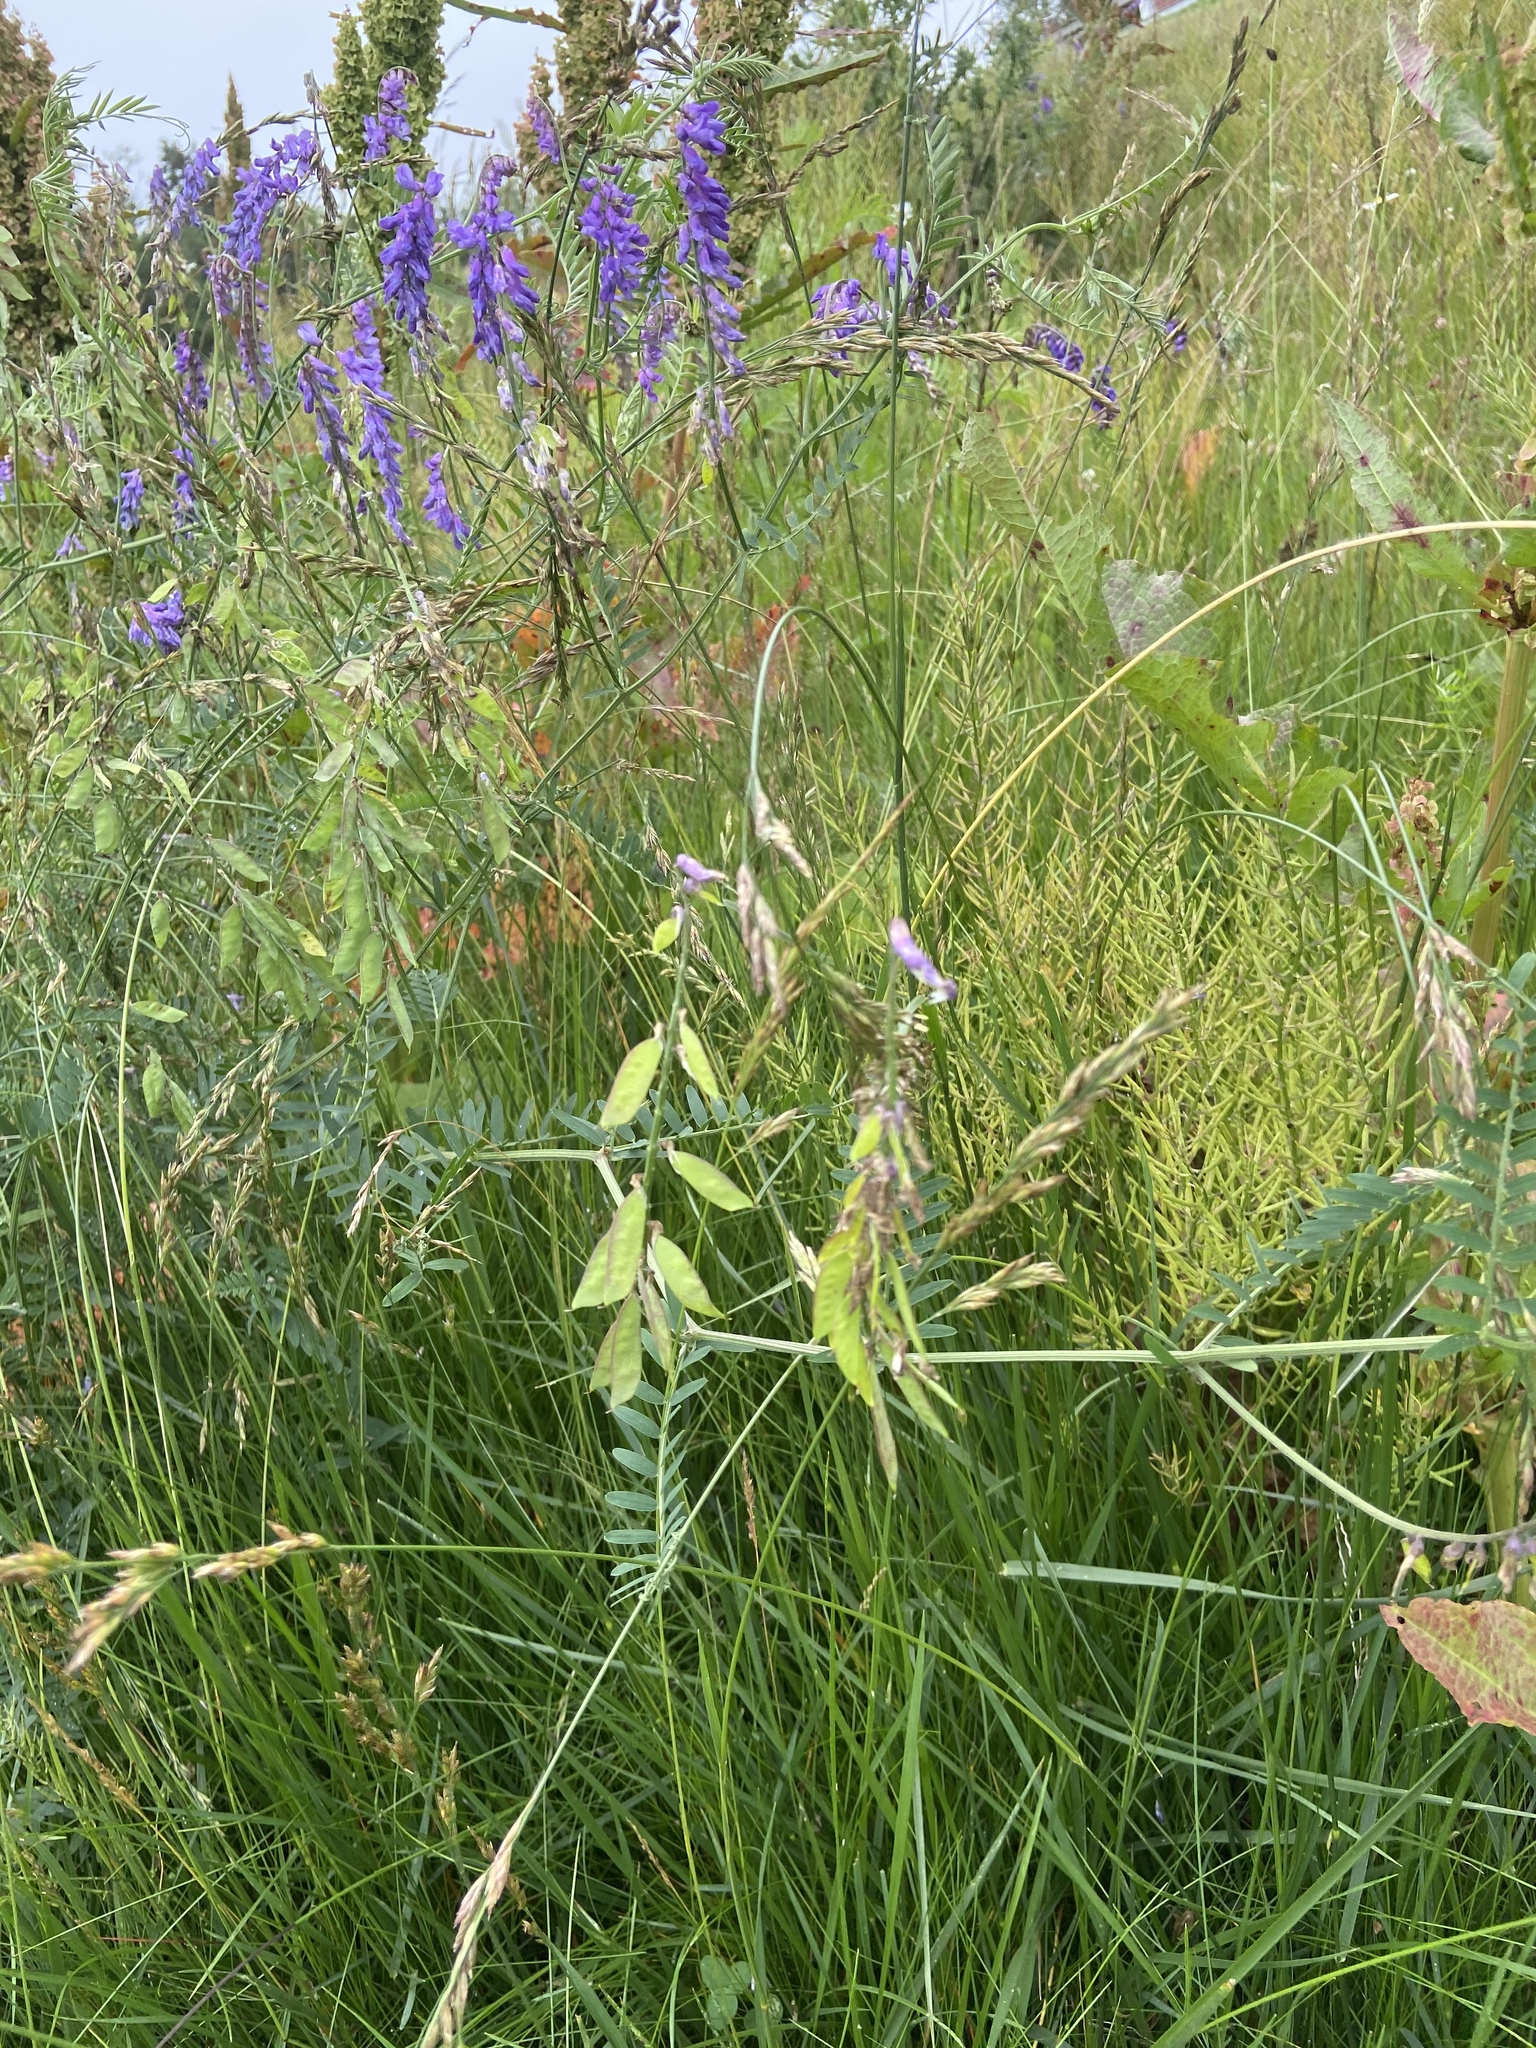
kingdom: Plantae
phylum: Tracheophyta
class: Magnoliopsida
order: Fabales
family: Fabaceae
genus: Vicia
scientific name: Vicia cracca
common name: Bird vetch
